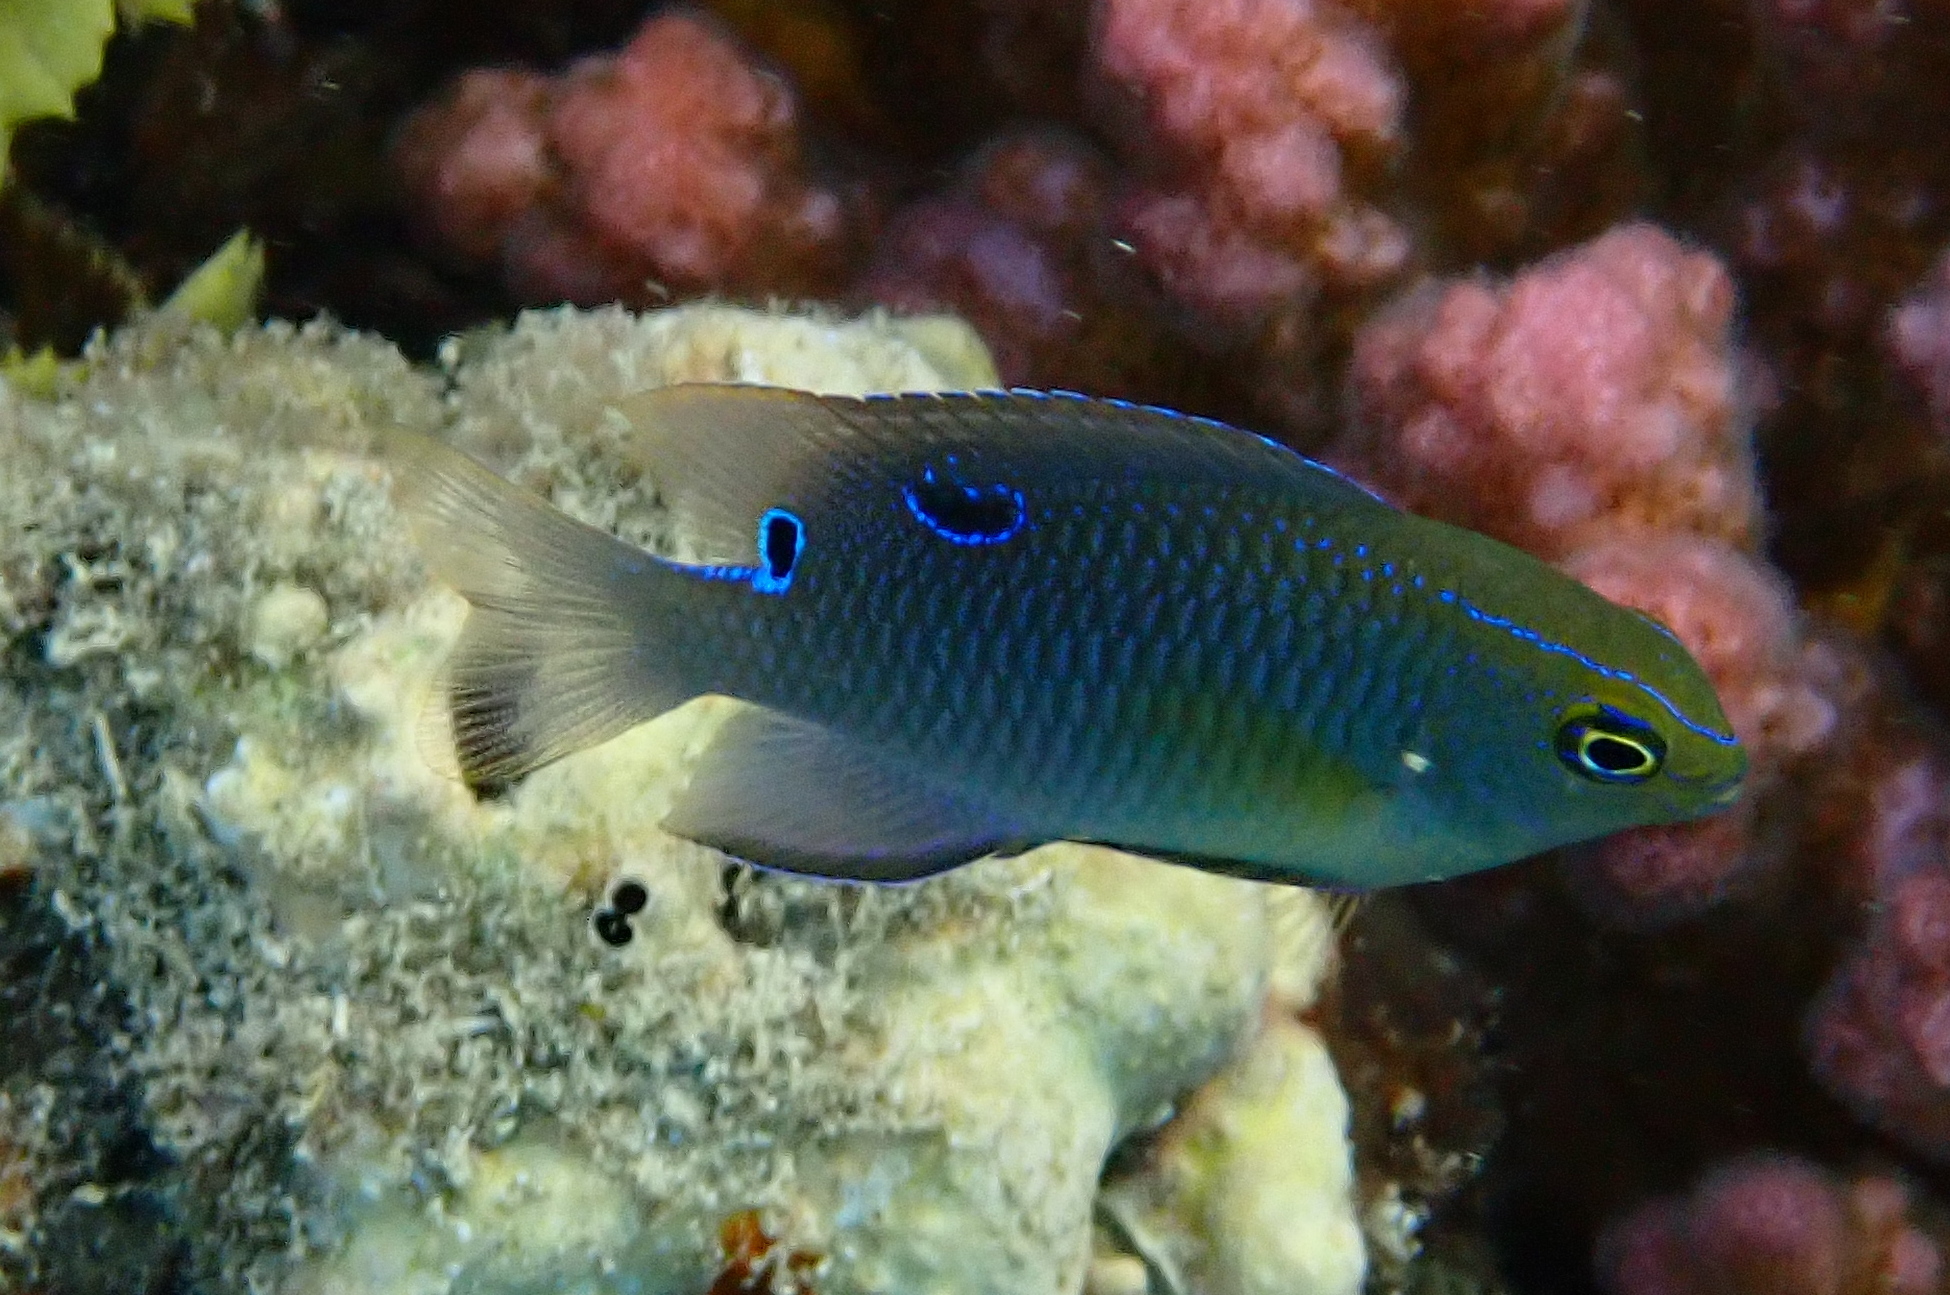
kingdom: Animalia
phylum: Chordata
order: Perciformes
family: Pomacentridae
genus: Chrysiptera
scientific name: Chrysiptera unimaculata
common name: Onespot demoiselle
